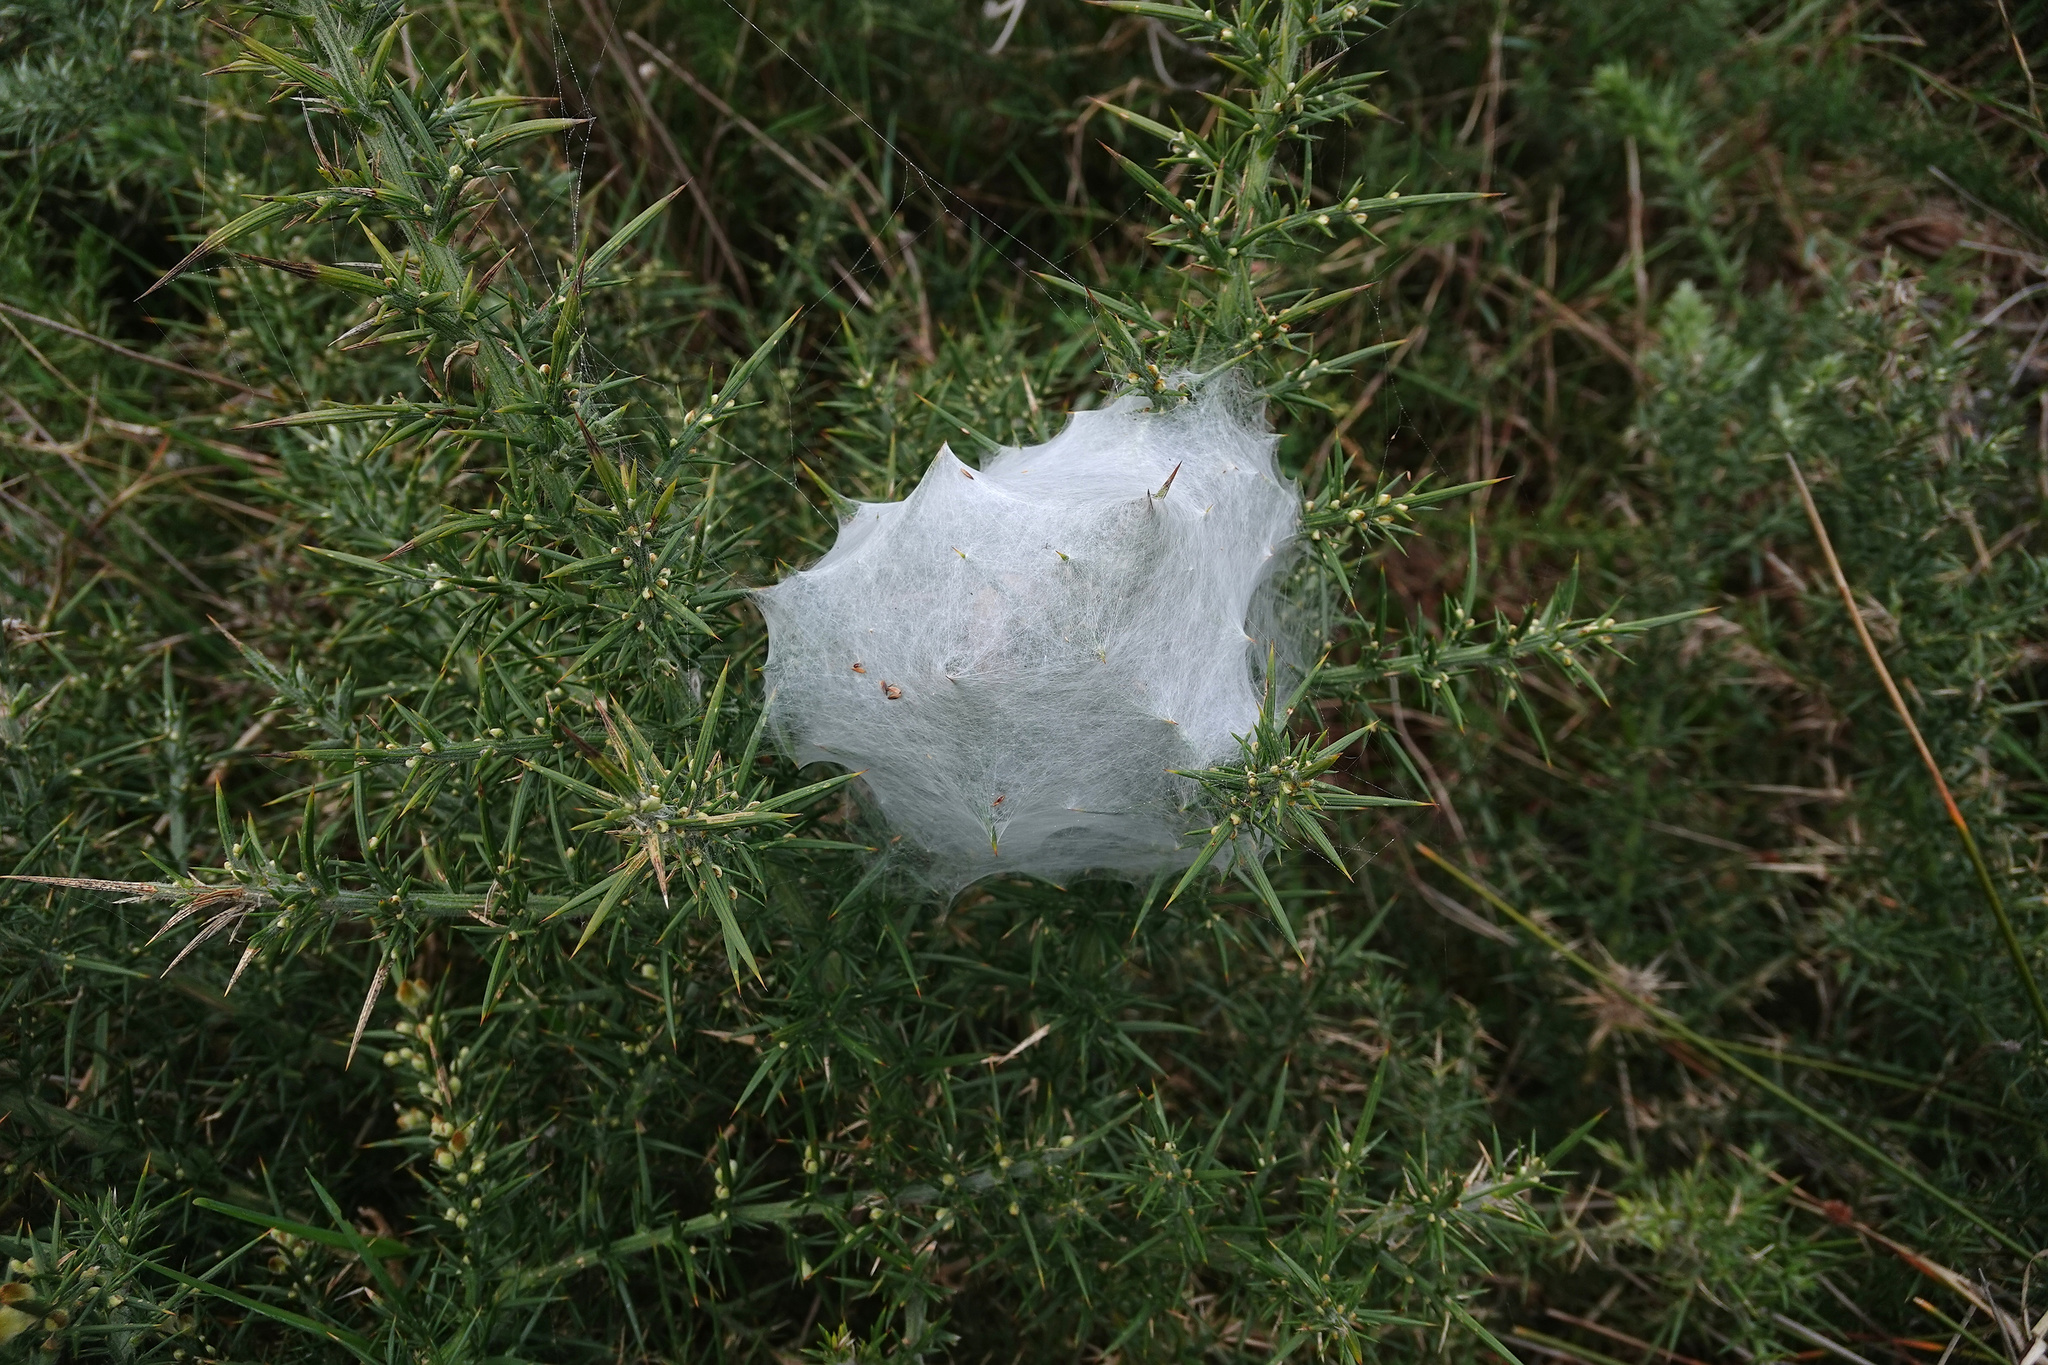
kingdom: Animalia
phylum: Arthropoda
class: Arachnida
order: Araneae
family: Pisauridae
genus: Dolomedes
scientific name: Dolomedes minor
